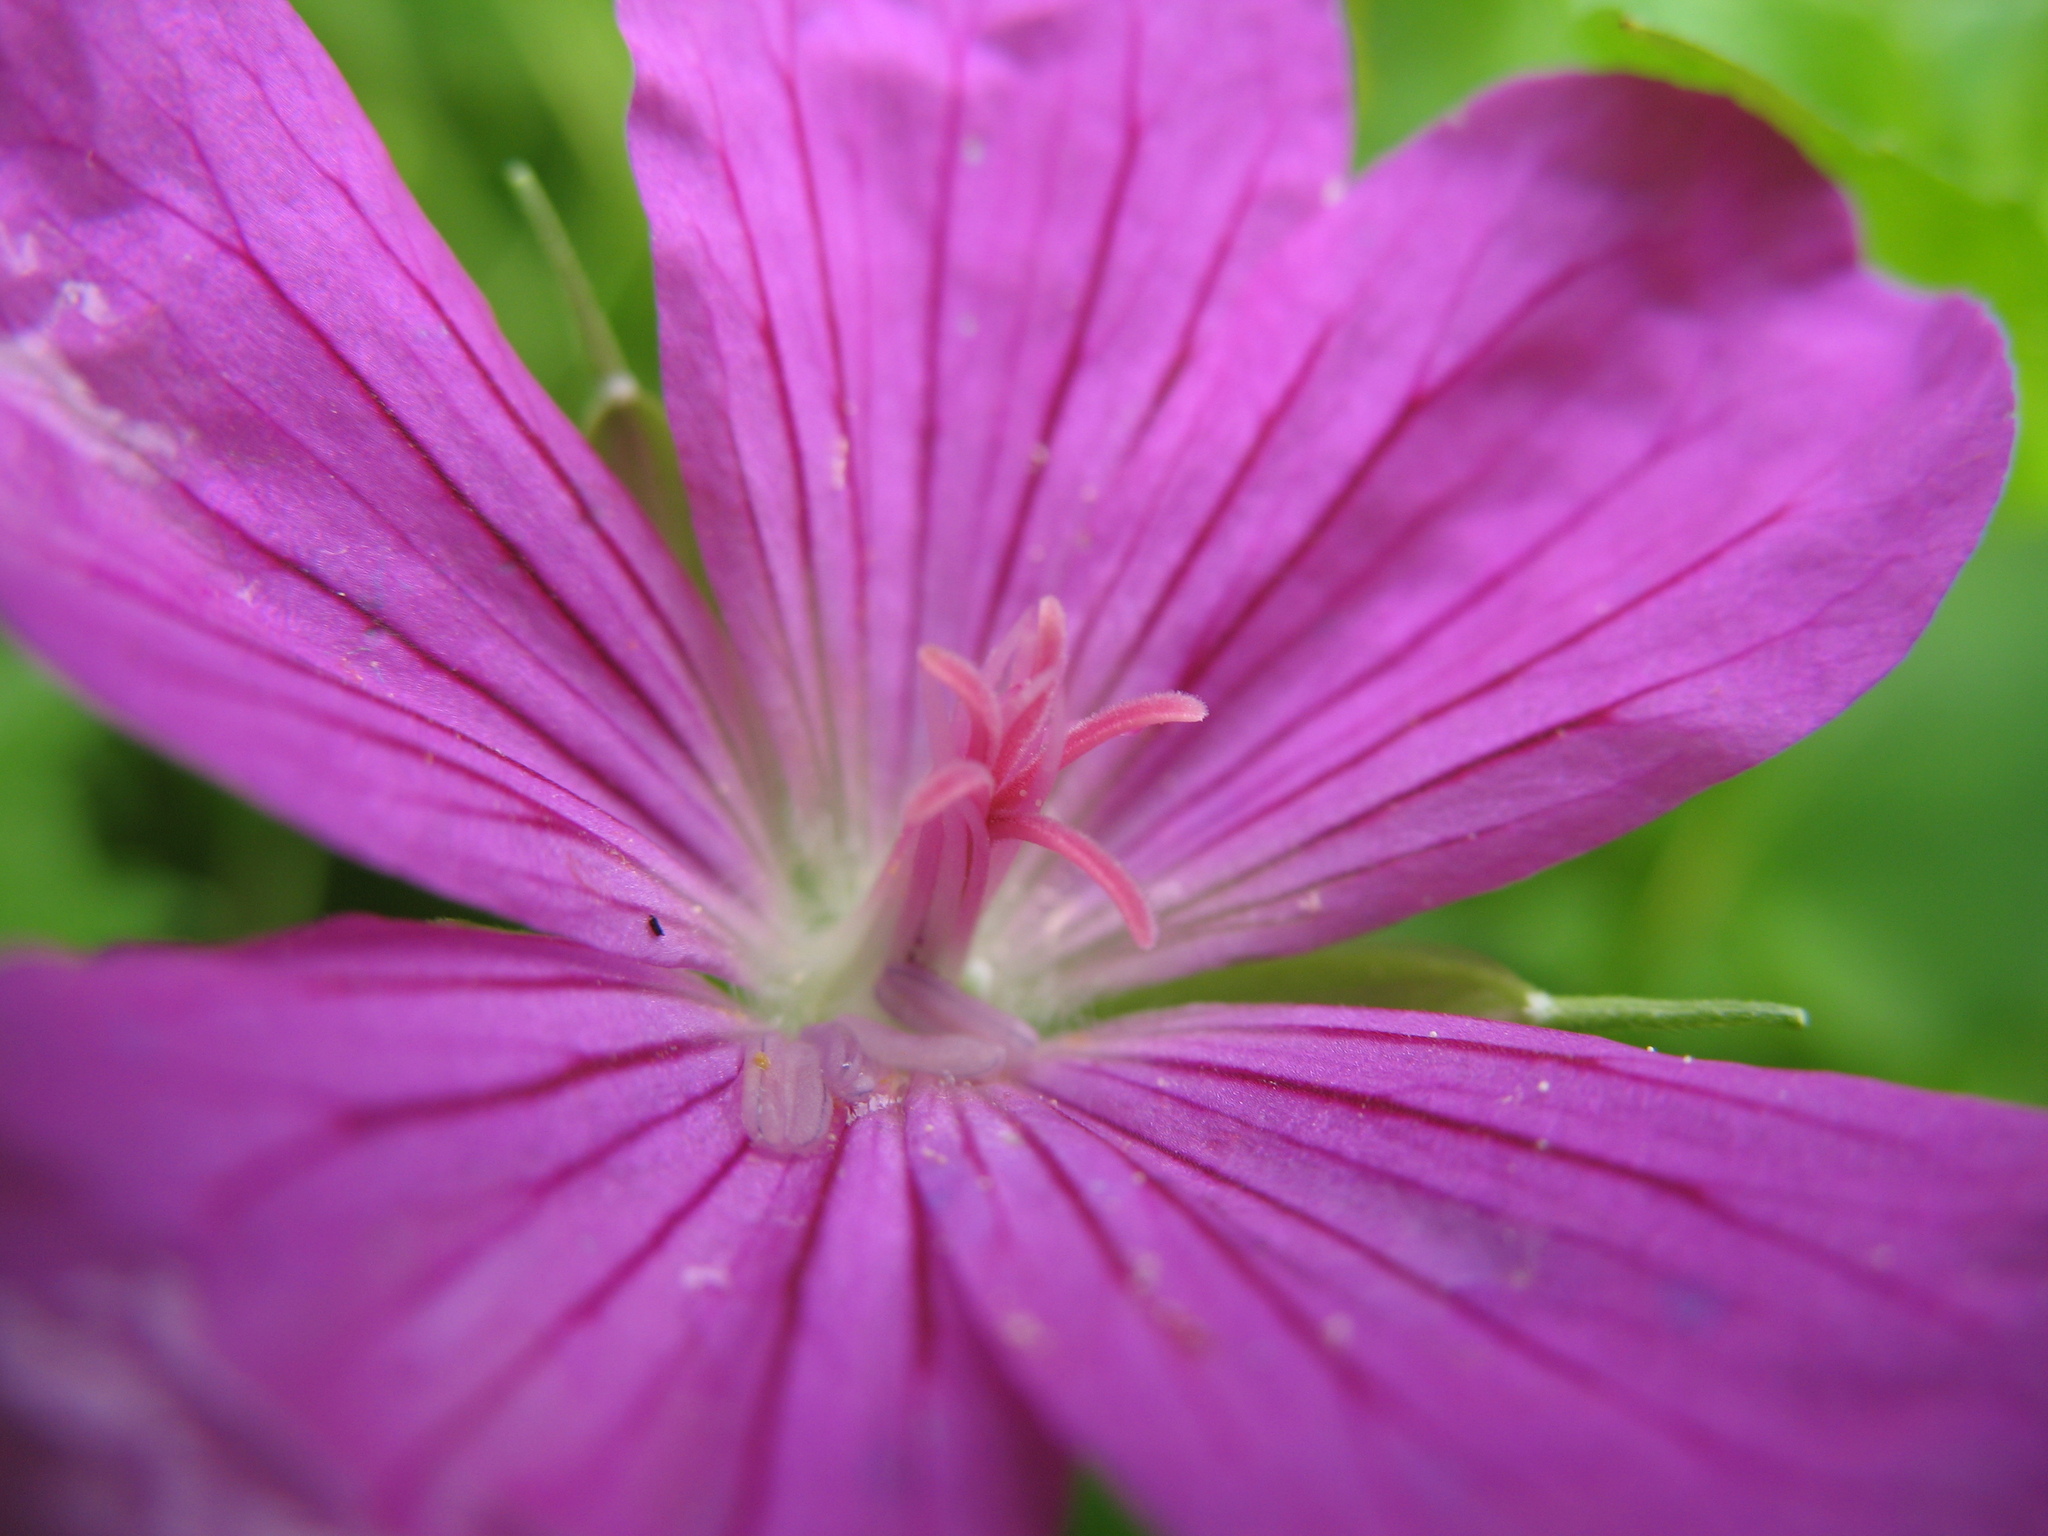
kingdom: Plantae
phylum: Tracheophyta
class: Magnoliopsida
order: Geraniales
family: Geraniaceae
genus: Geranium
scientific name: Geranium palustre
